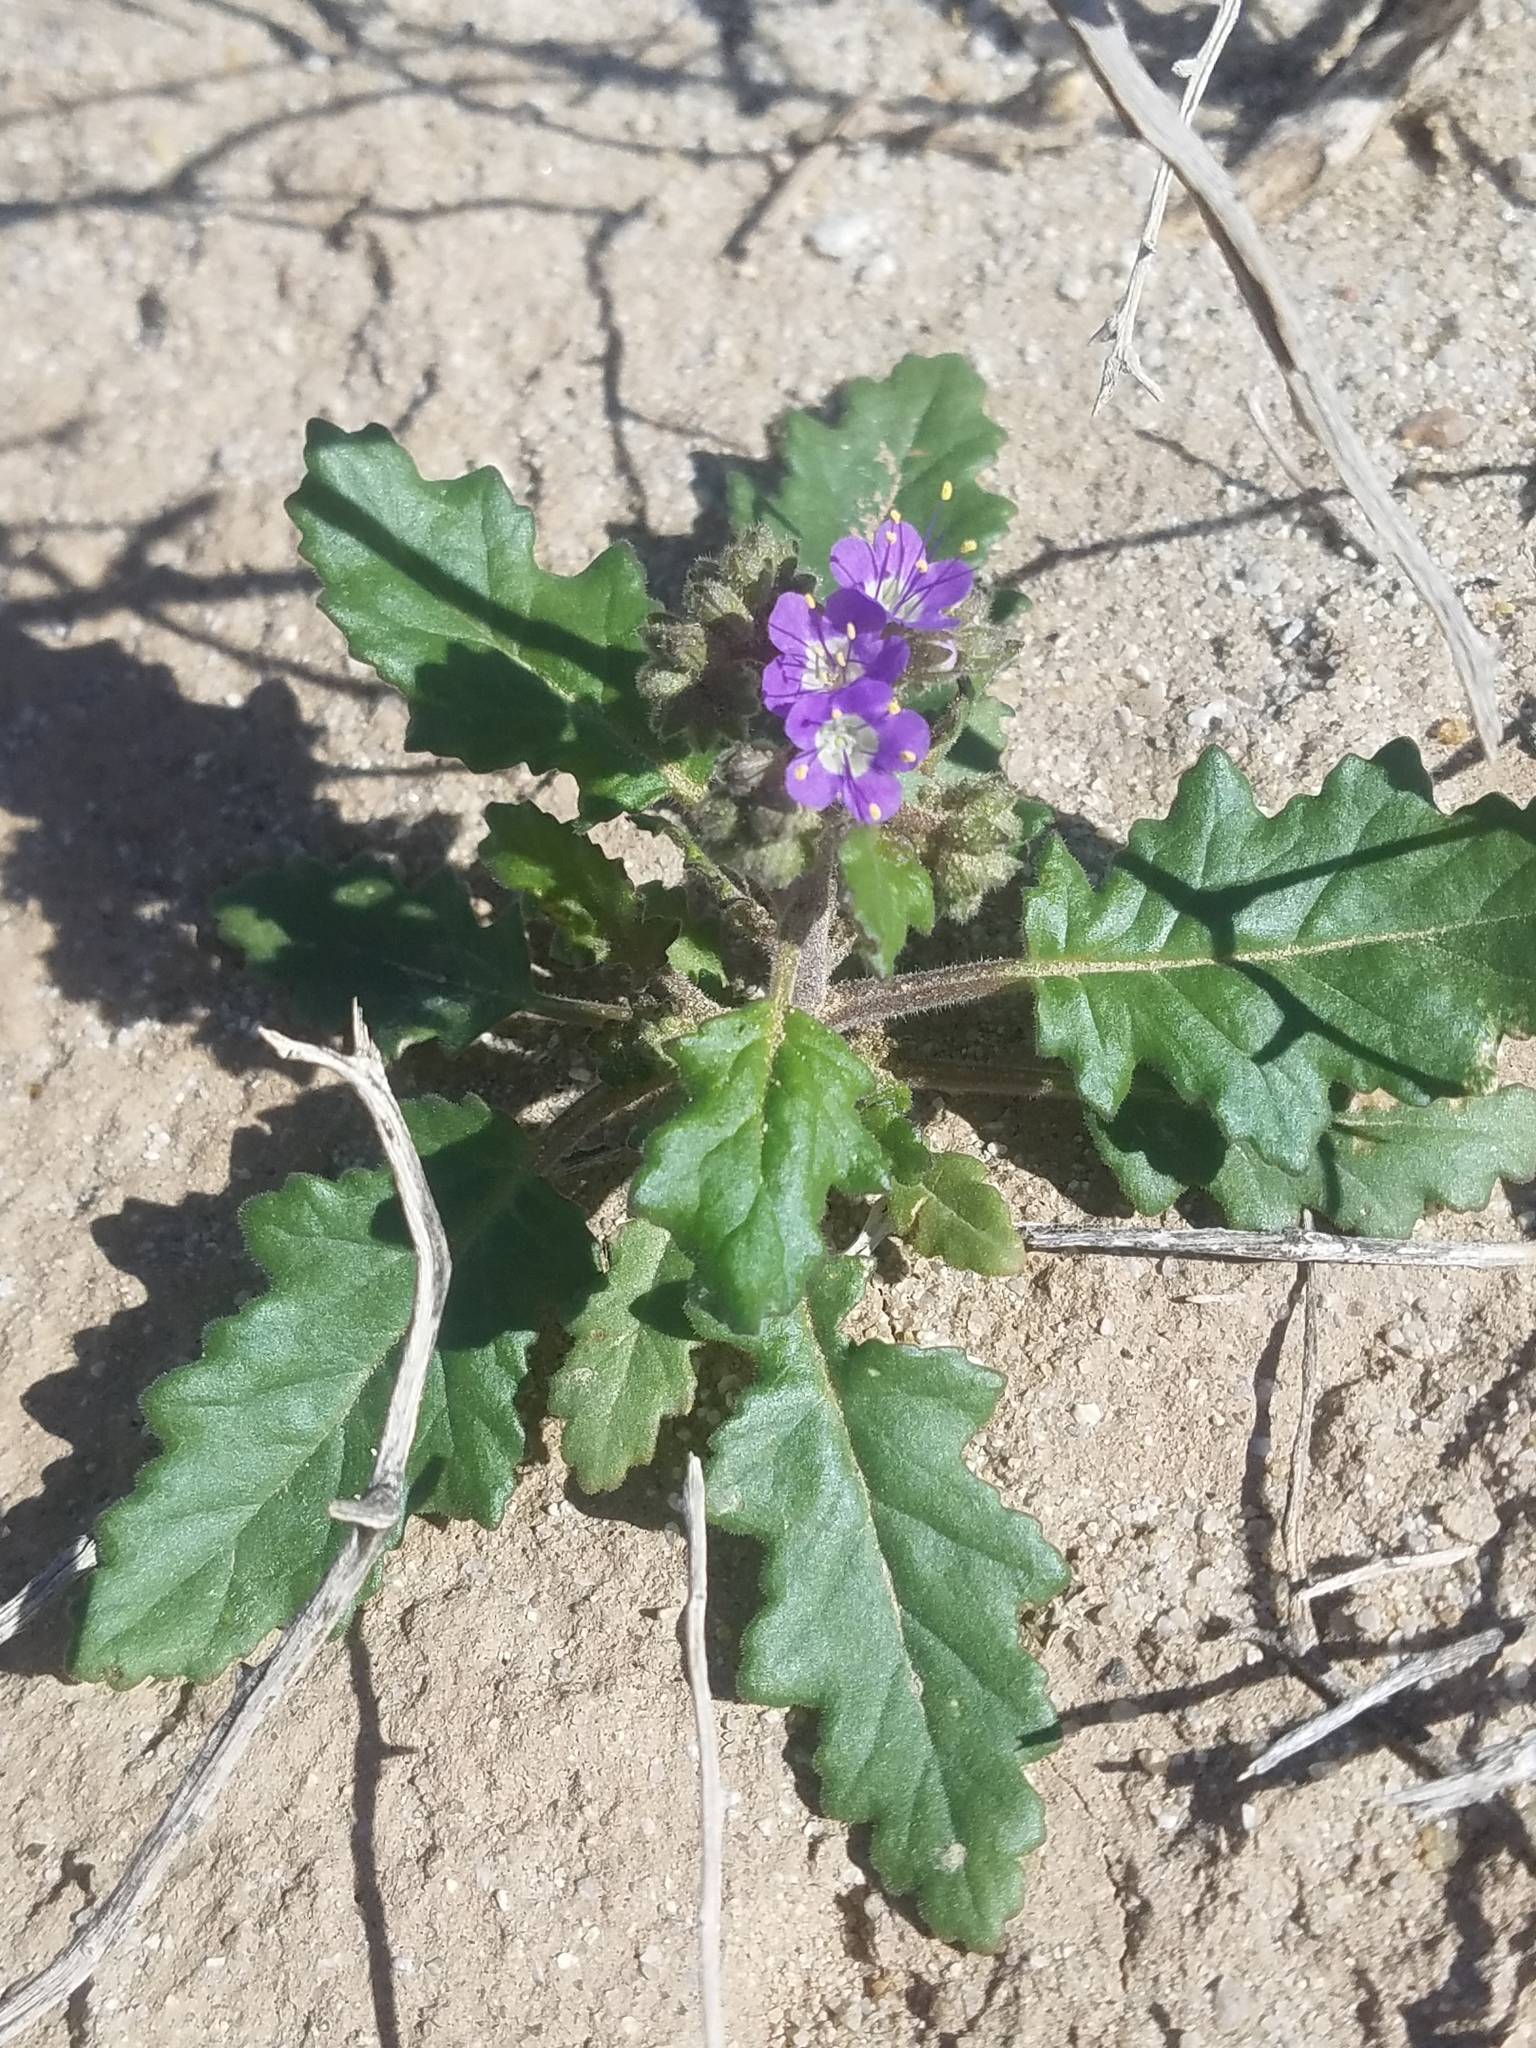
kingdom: Plantae
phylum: Tracheophyta
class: Magnoliopsida
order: Boraginales
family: Hydrophyllaceae
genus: Phacelia
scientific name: Phacelia crenulata
